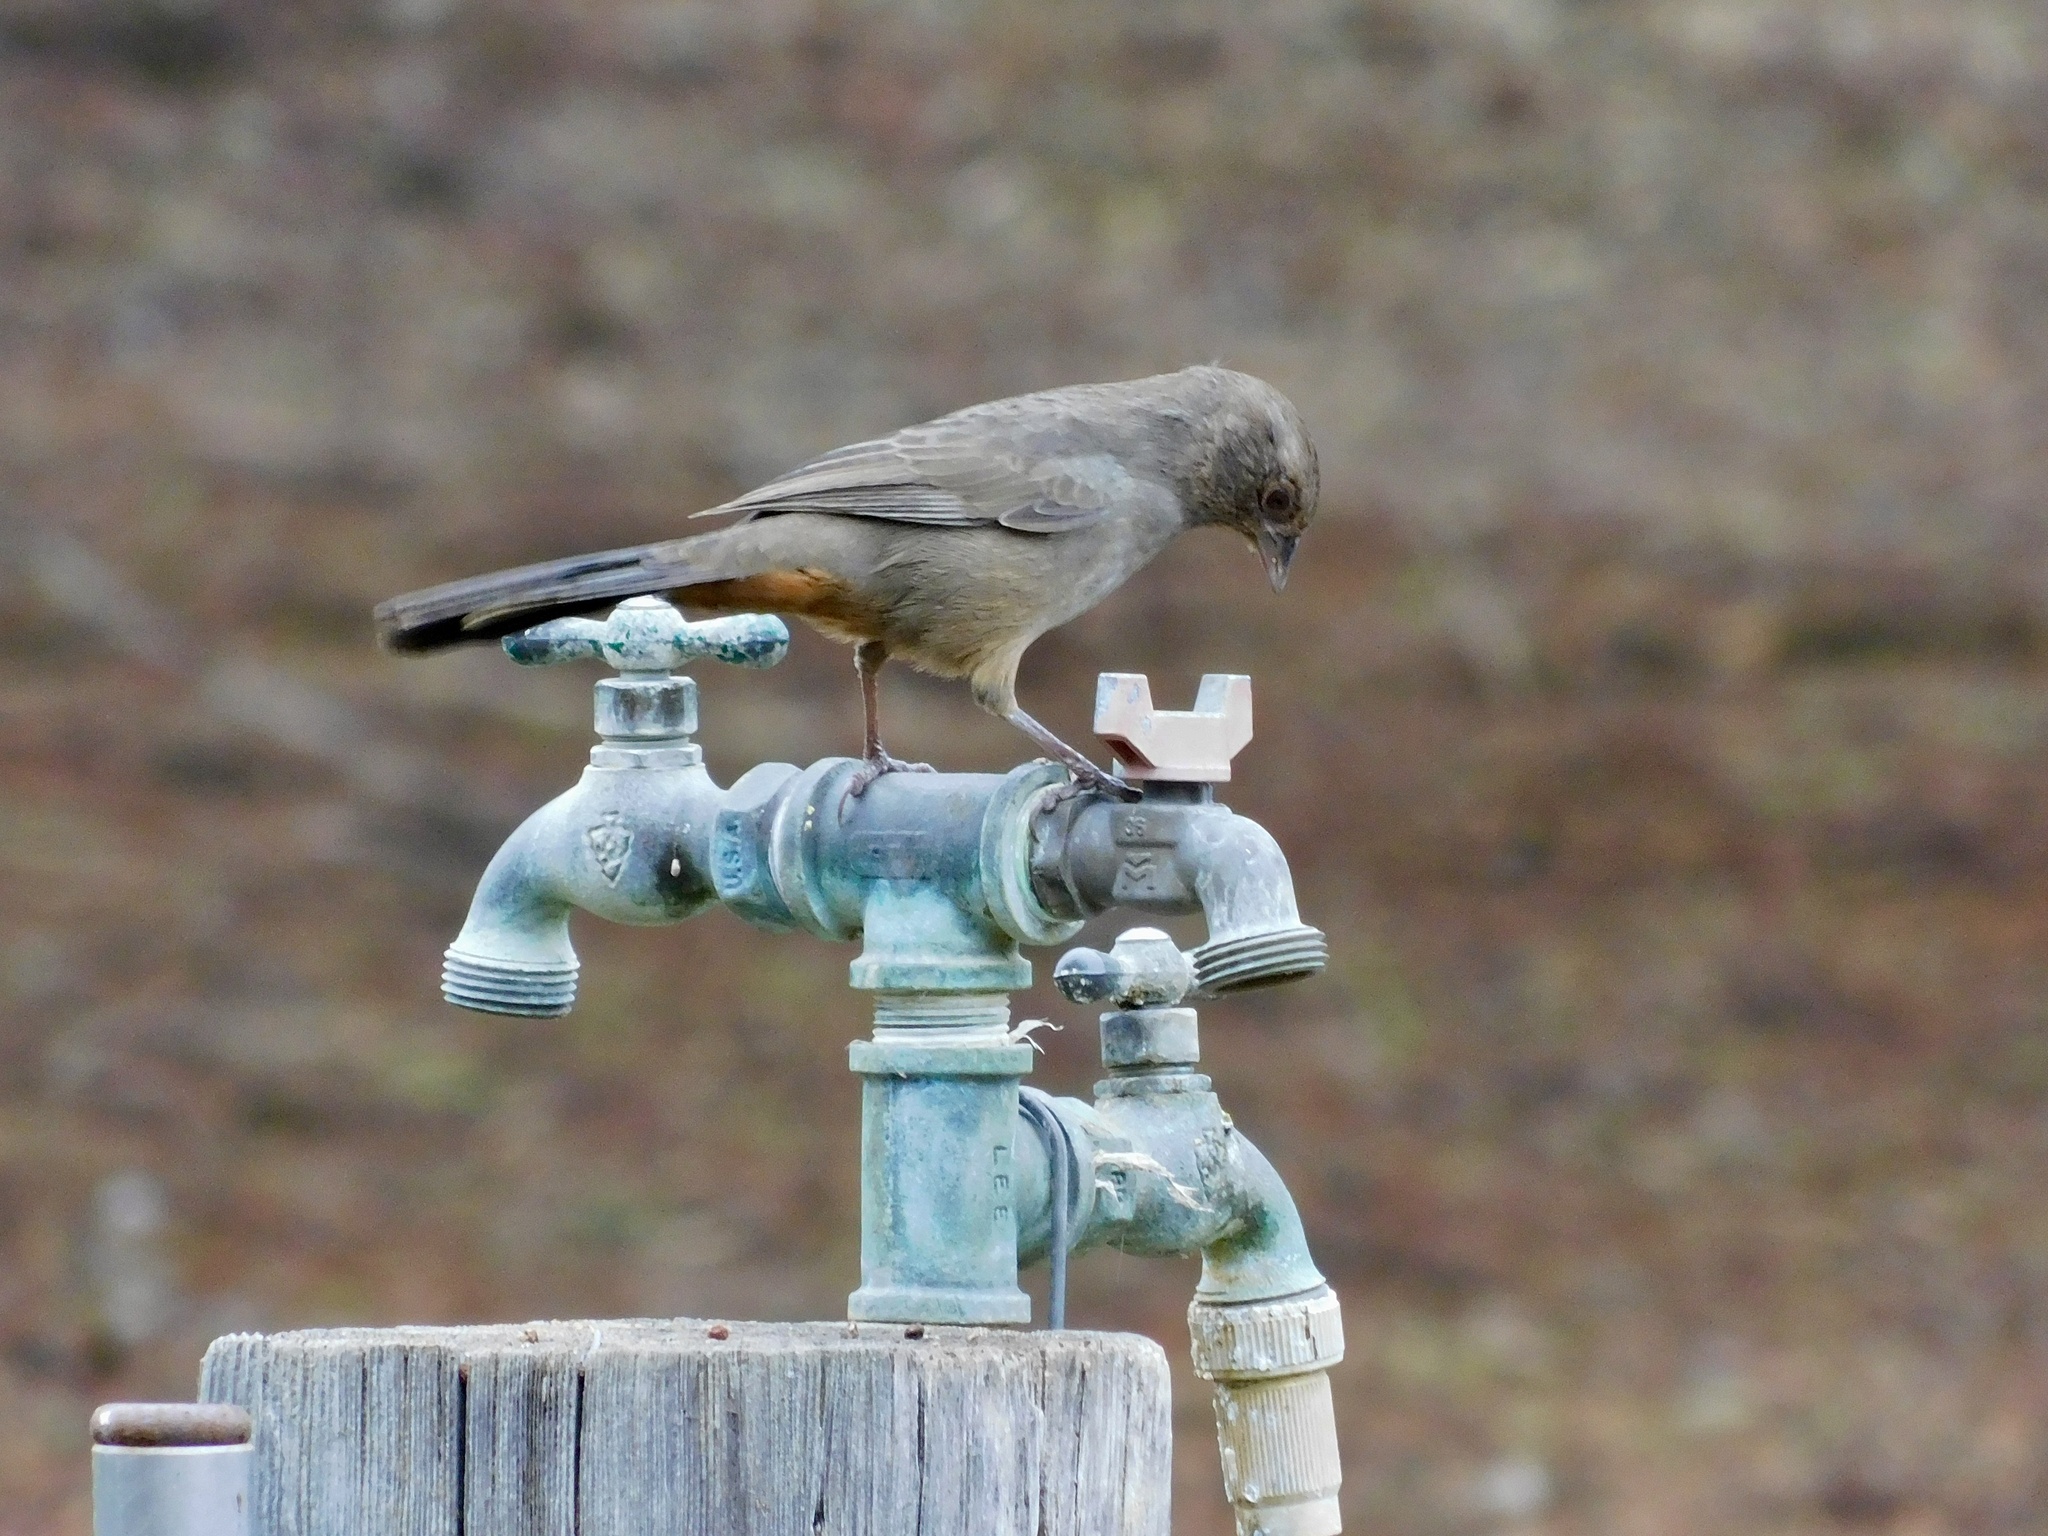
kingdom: Animalia
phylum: Chordata
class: Aves
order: Passeriformes
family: Passerellidae
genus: Melozone
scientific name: Melozone crissalis
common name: California towhee
